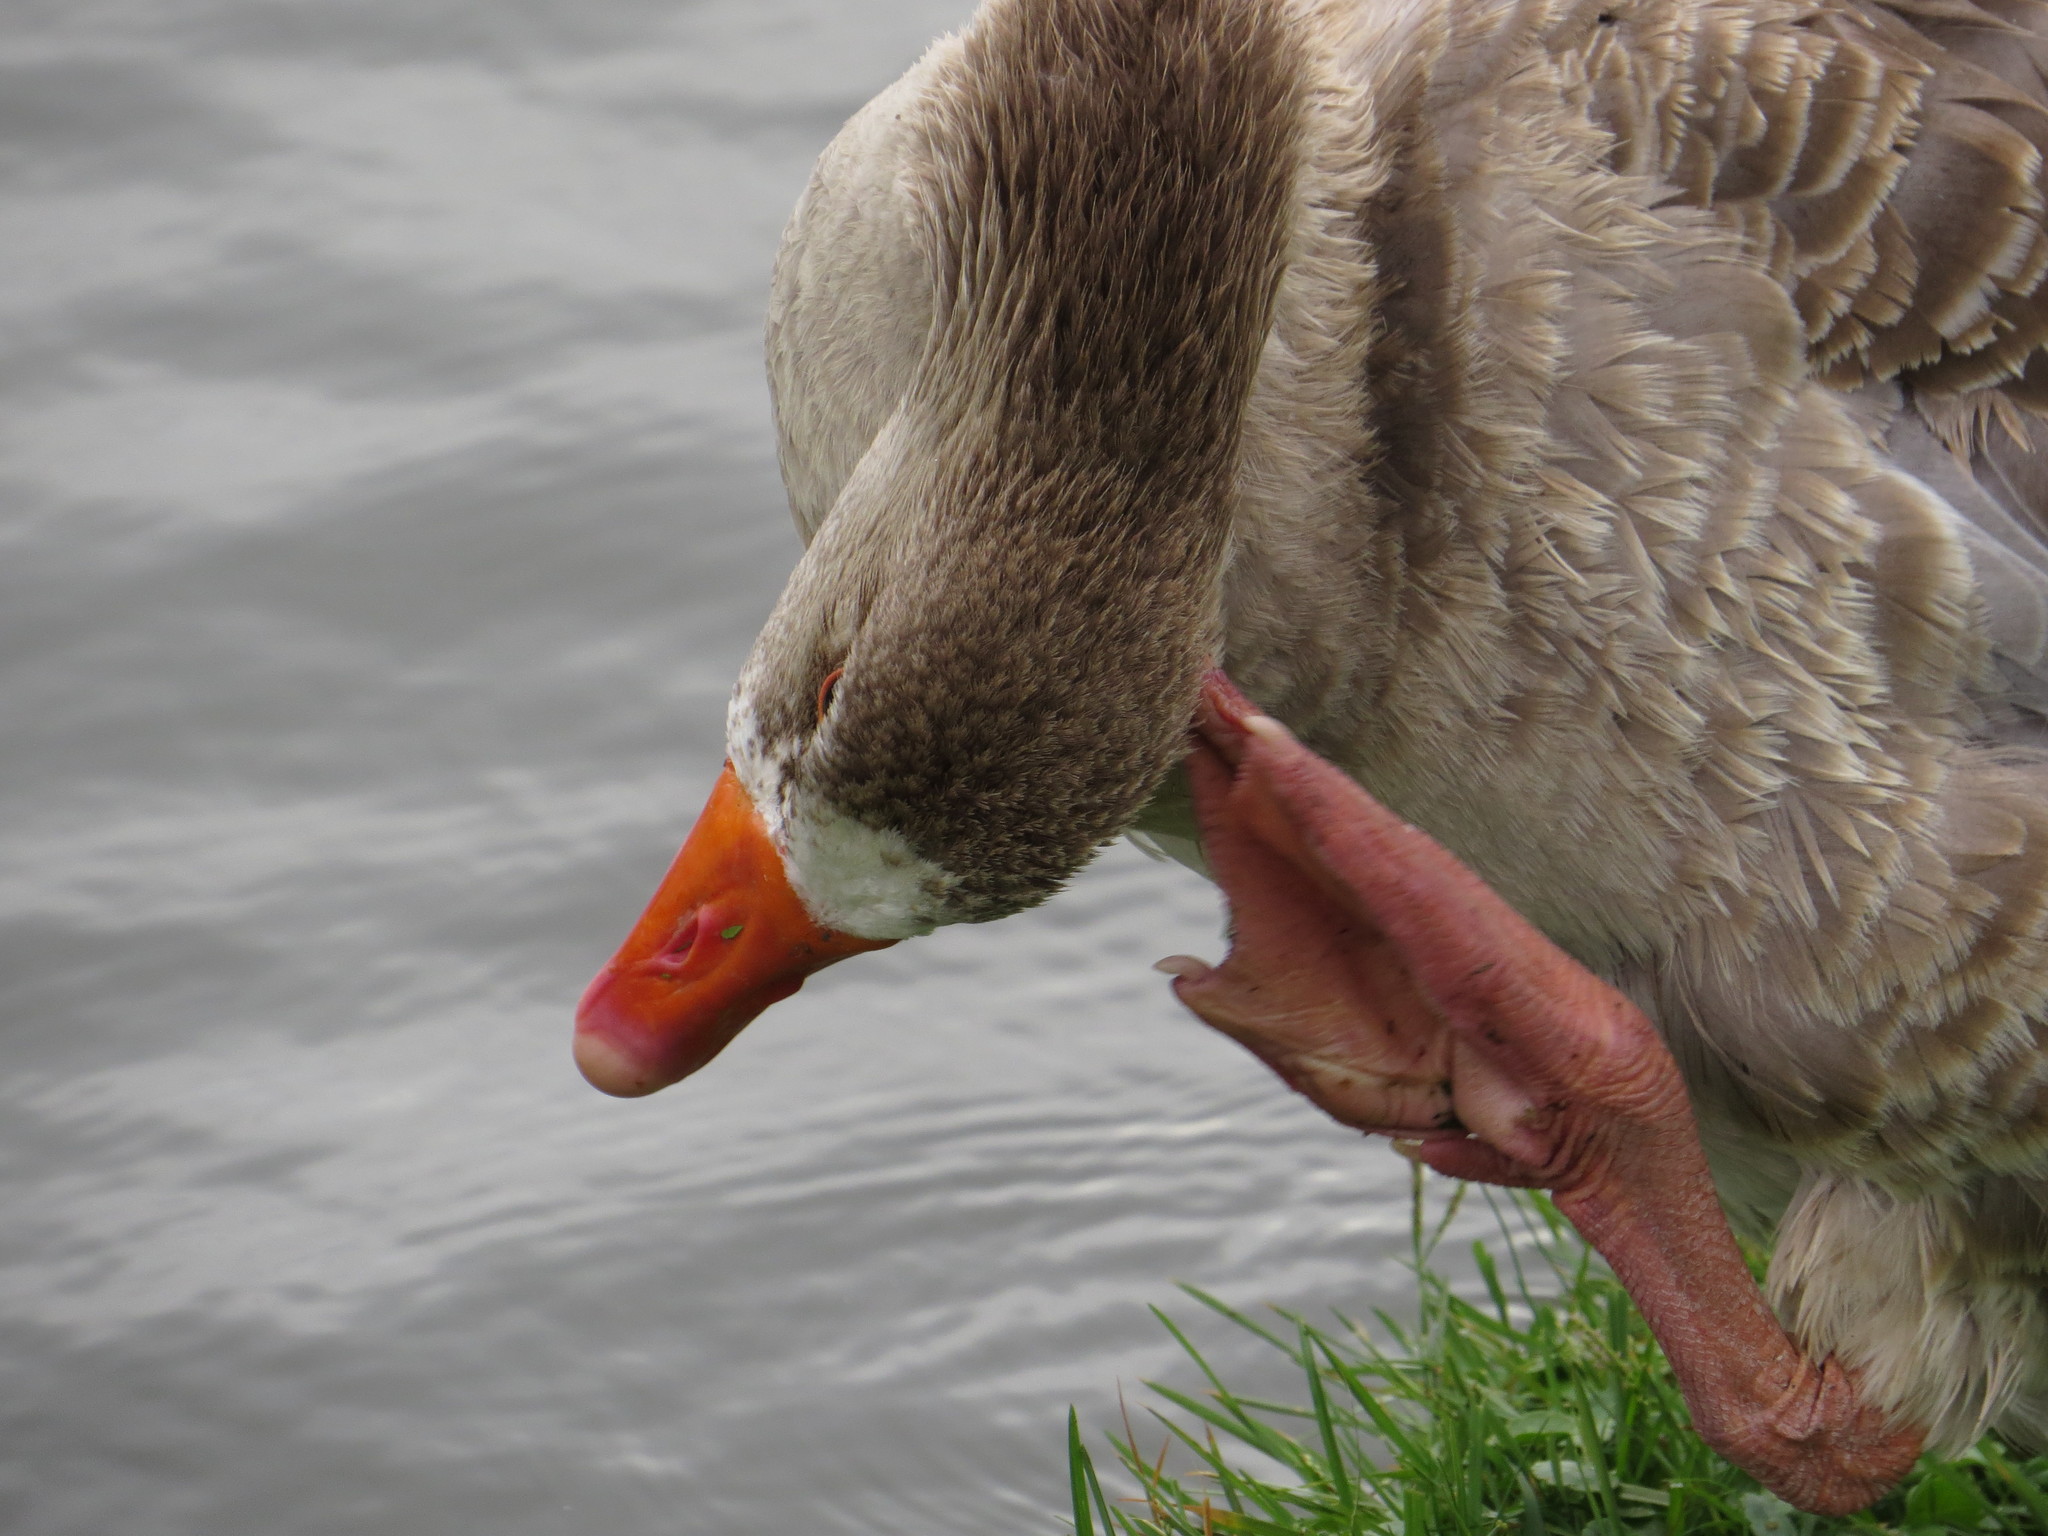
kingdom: Animalia
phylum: Chordata
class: Aves
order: Anseriformes
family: Anatidae
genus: Anser
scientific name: Anser anser
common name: Greylag goose
